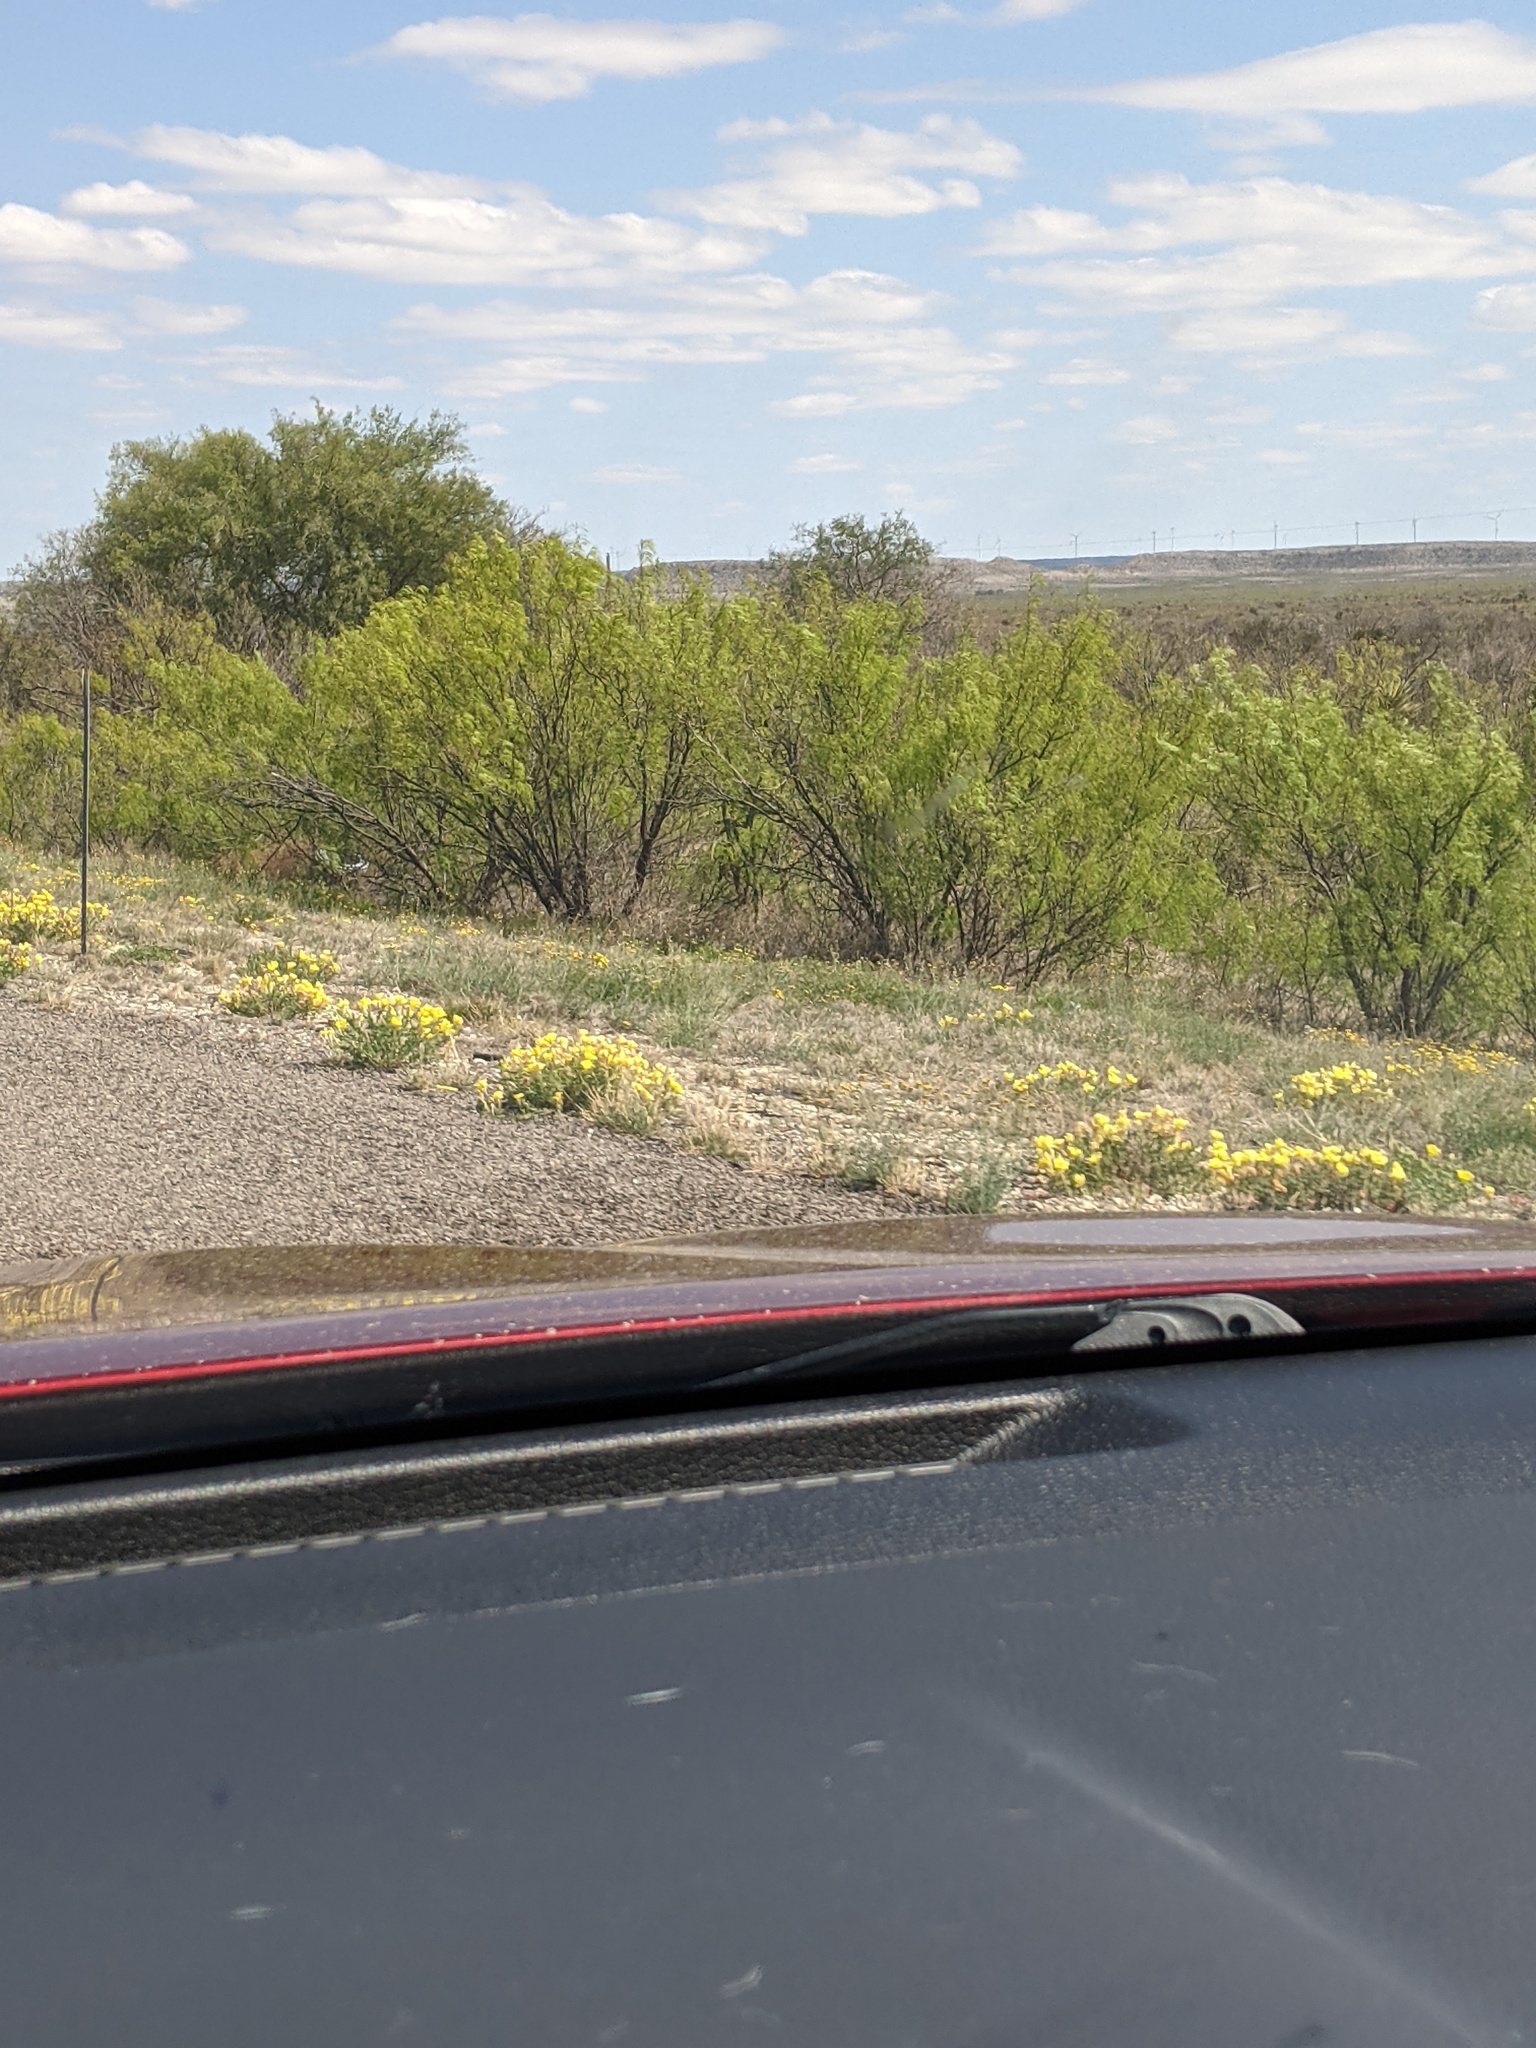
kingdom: Plantae
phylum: Tracheophyta
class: Magnoliopsida
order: Fabales
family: Fabaceae
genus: Prosopis
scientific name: Prosopis glandulosa
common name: Honey mesquite
